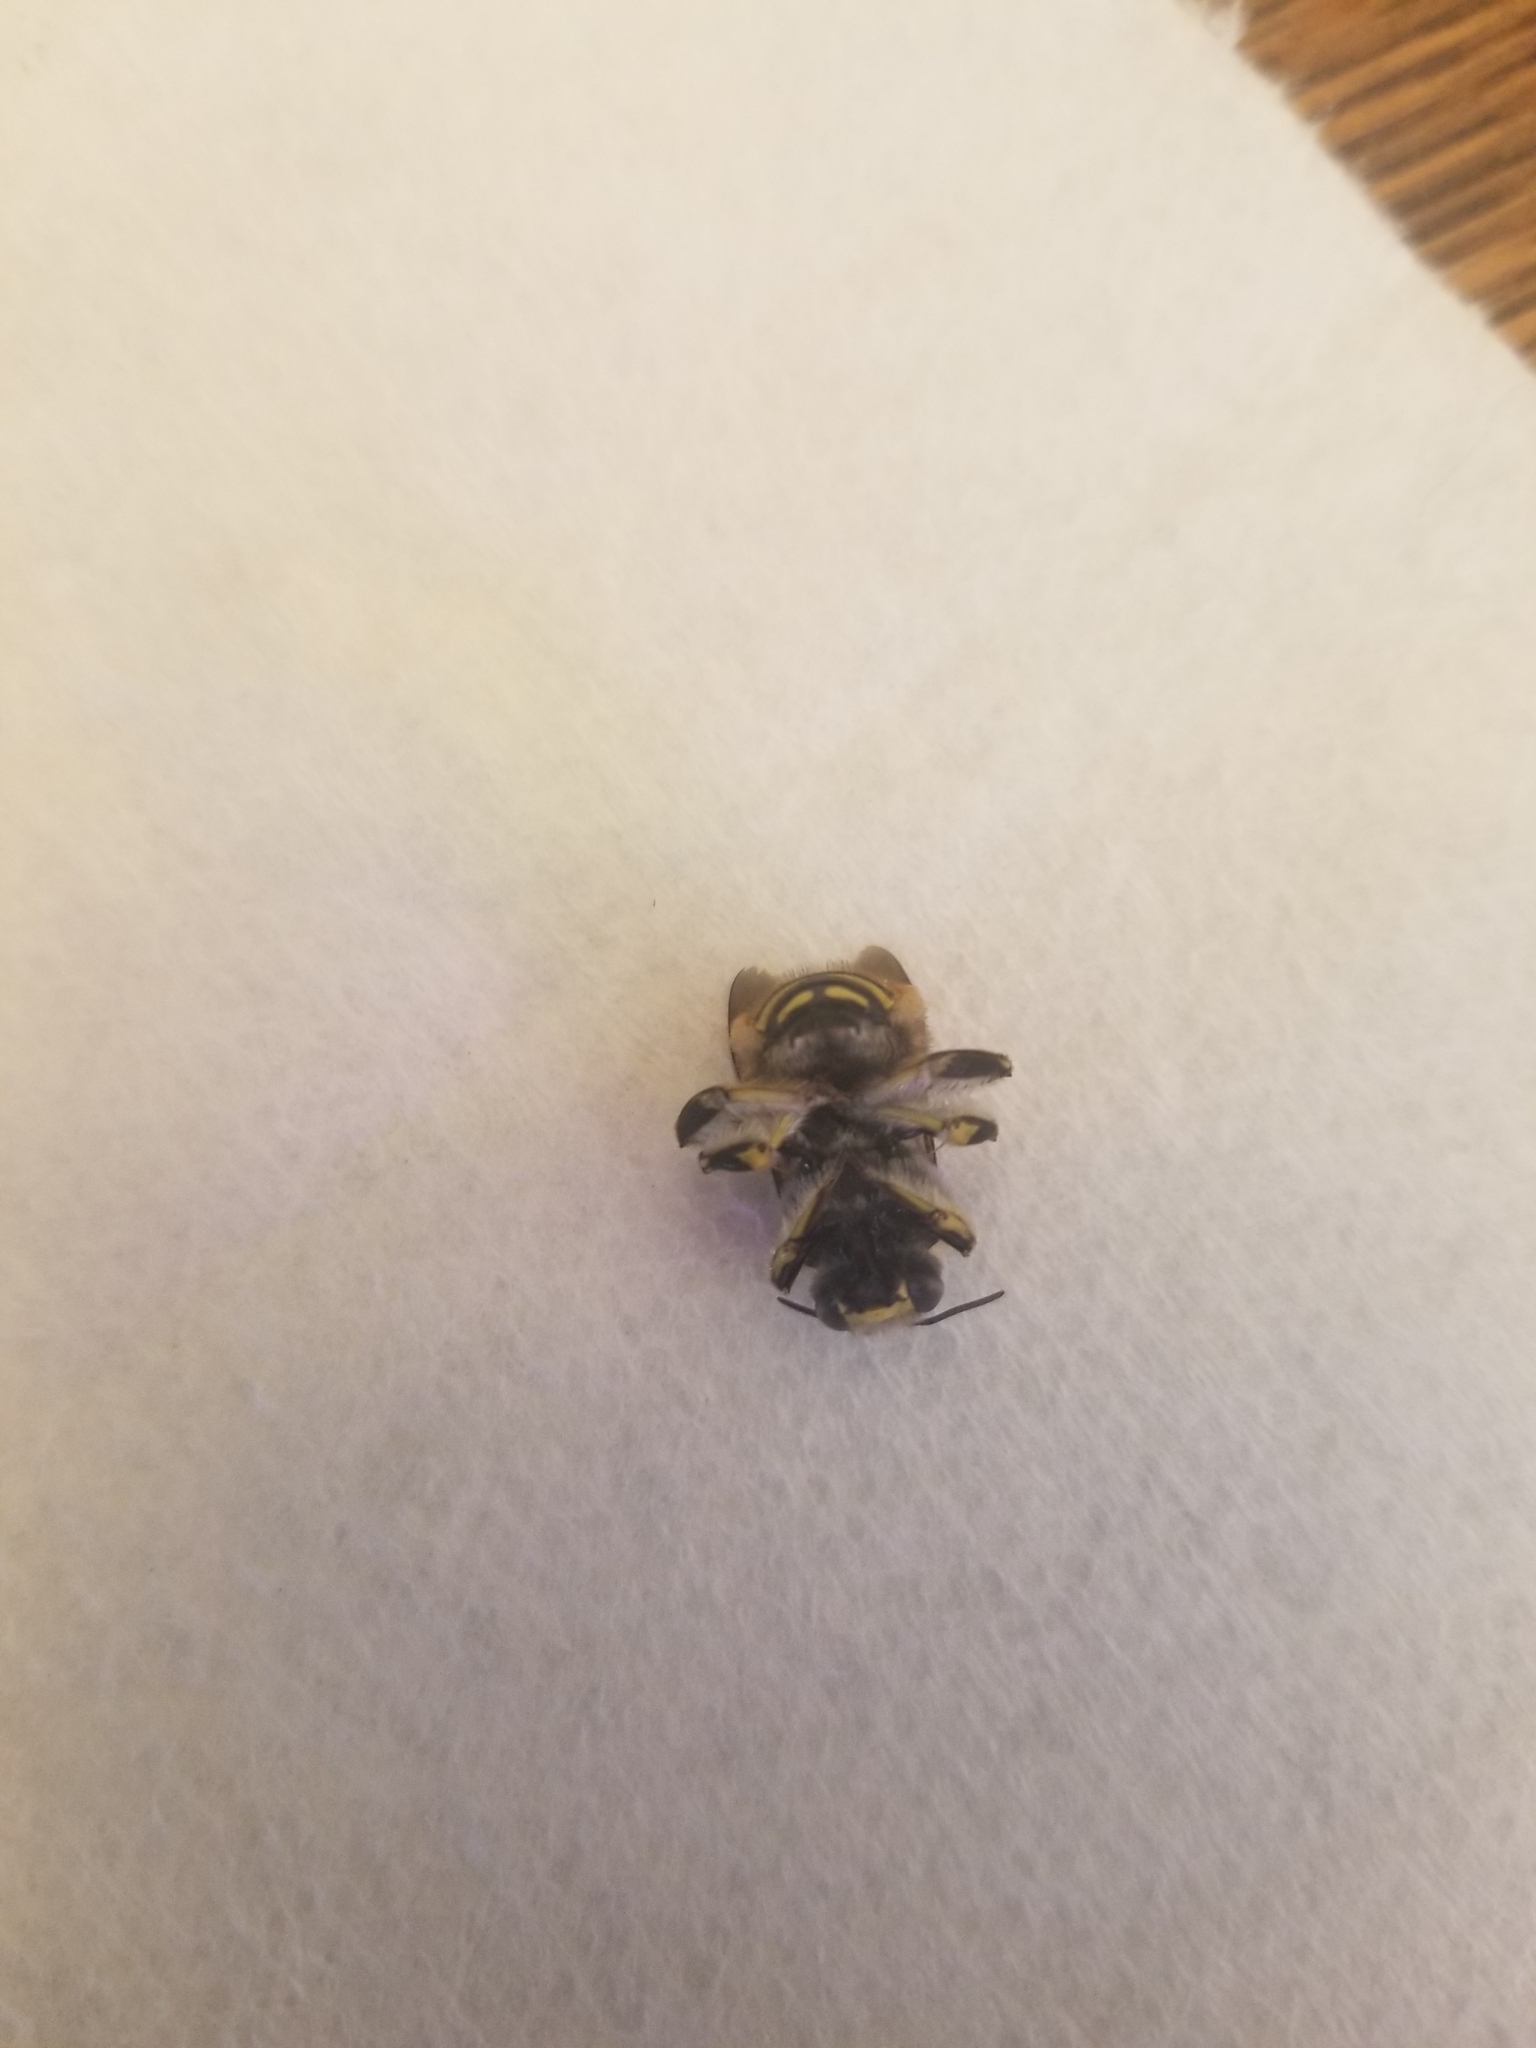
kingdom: Animalia
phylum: Arthropoda
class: Insecta
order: Hymenoptera
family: Megachilidae
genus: Anthidium
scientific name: Anthidium manicatum
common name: Wool carder bee
